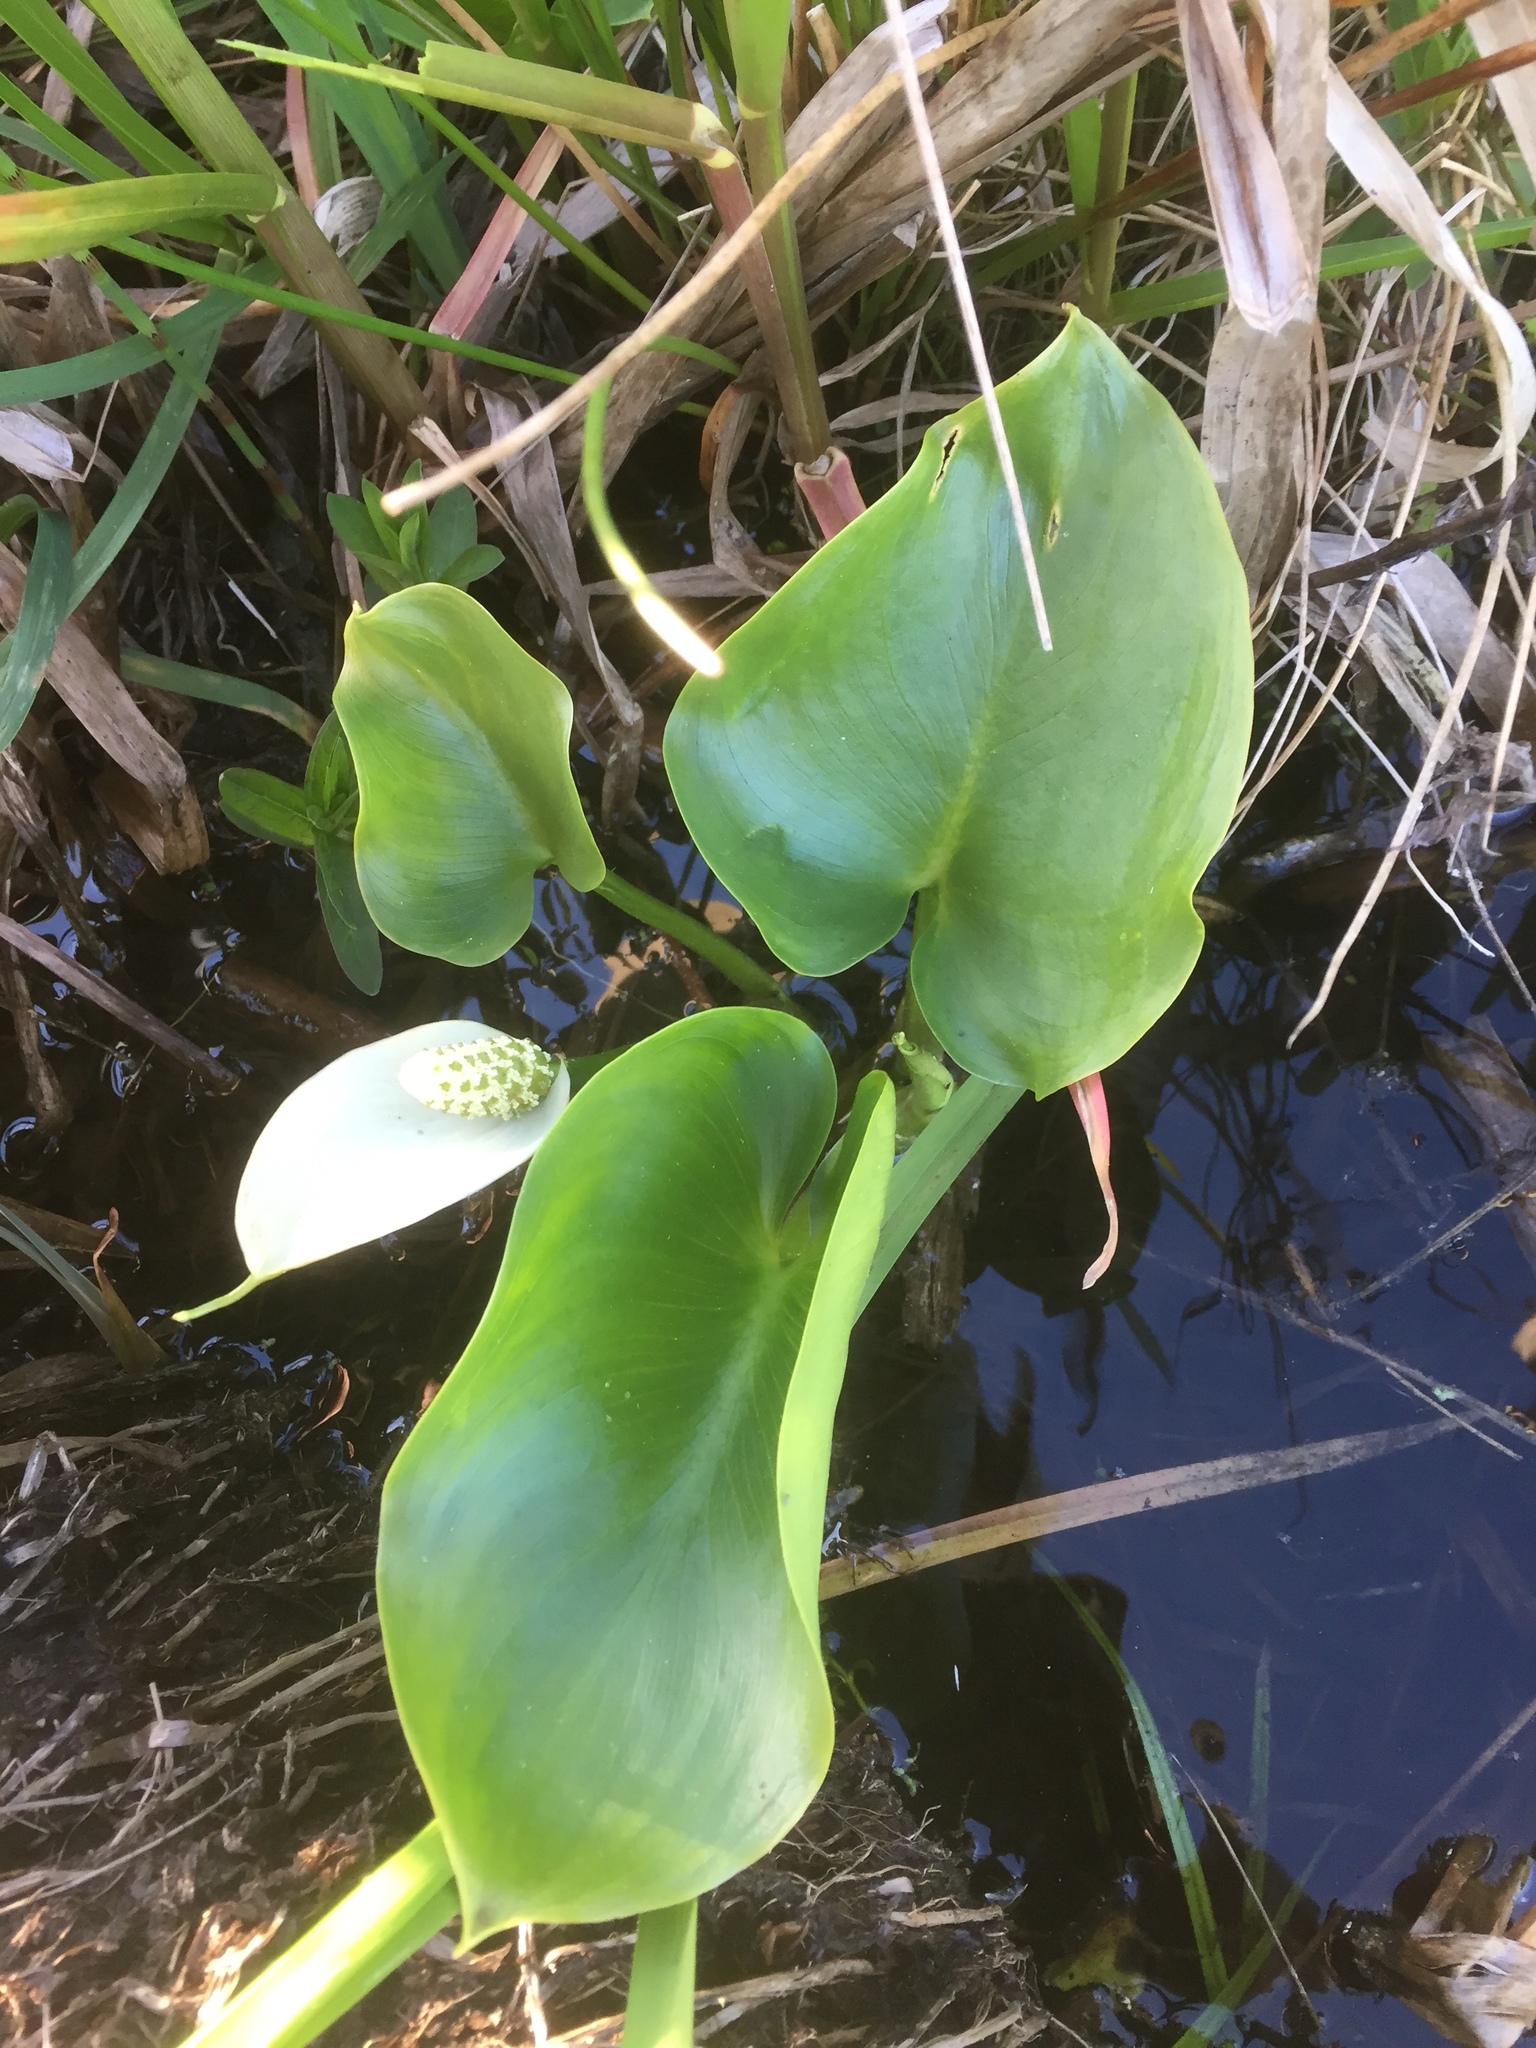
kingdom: Plantae
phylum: Tracheophyta
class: Liliopsida
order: Alismatales
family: Araceae
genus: Calla
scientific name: Calla palustris
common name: Bog arum
